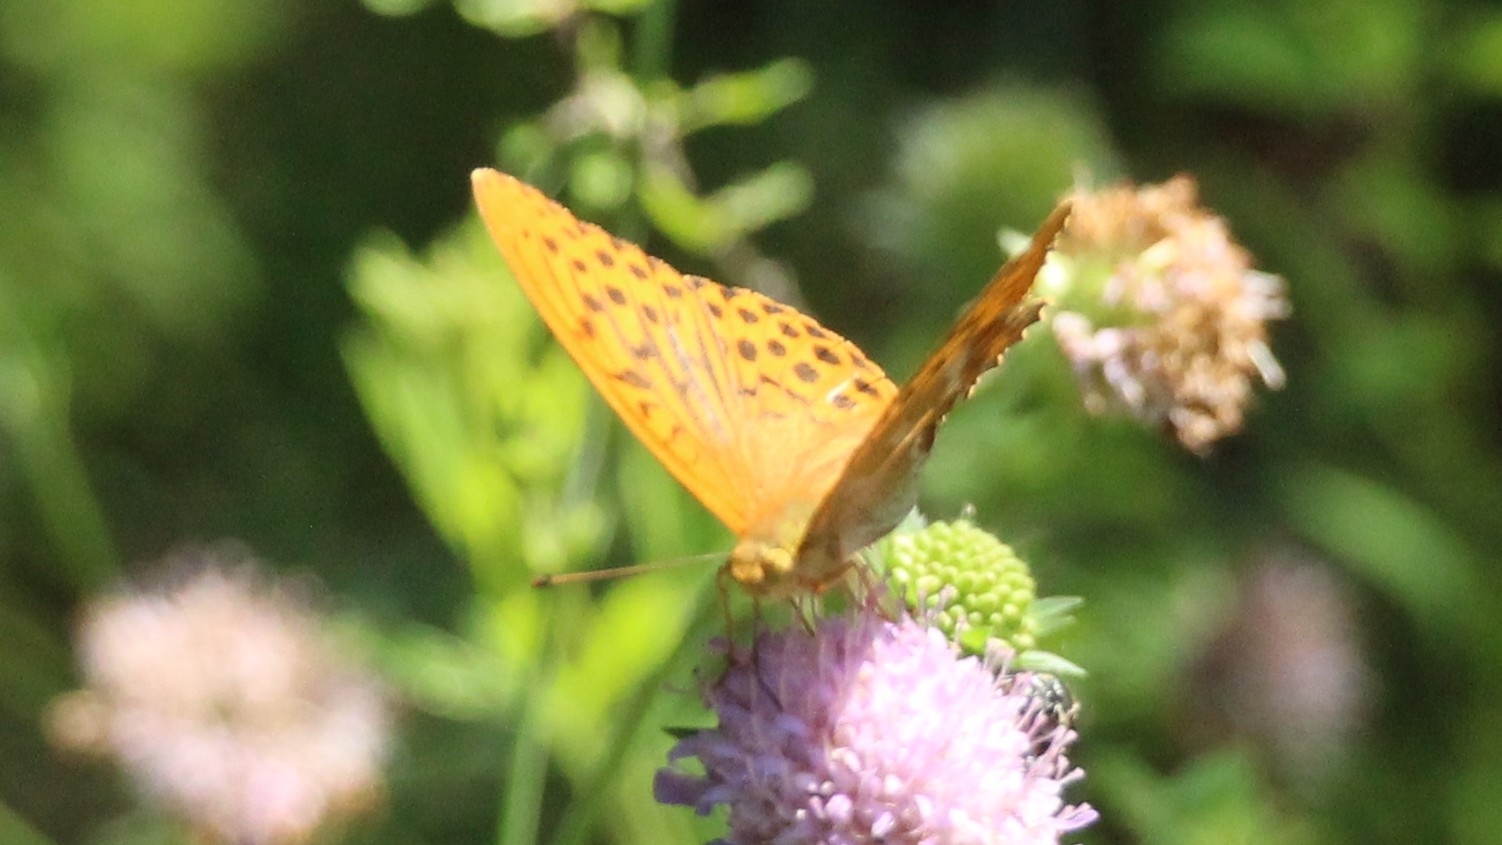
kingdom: Animalia
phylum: Arthropoda
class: Insecta
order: Lepidoptera
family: Nymphalidae
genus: Argynnis
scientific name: Argynnis paphia
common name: Silver-washed fritillary
